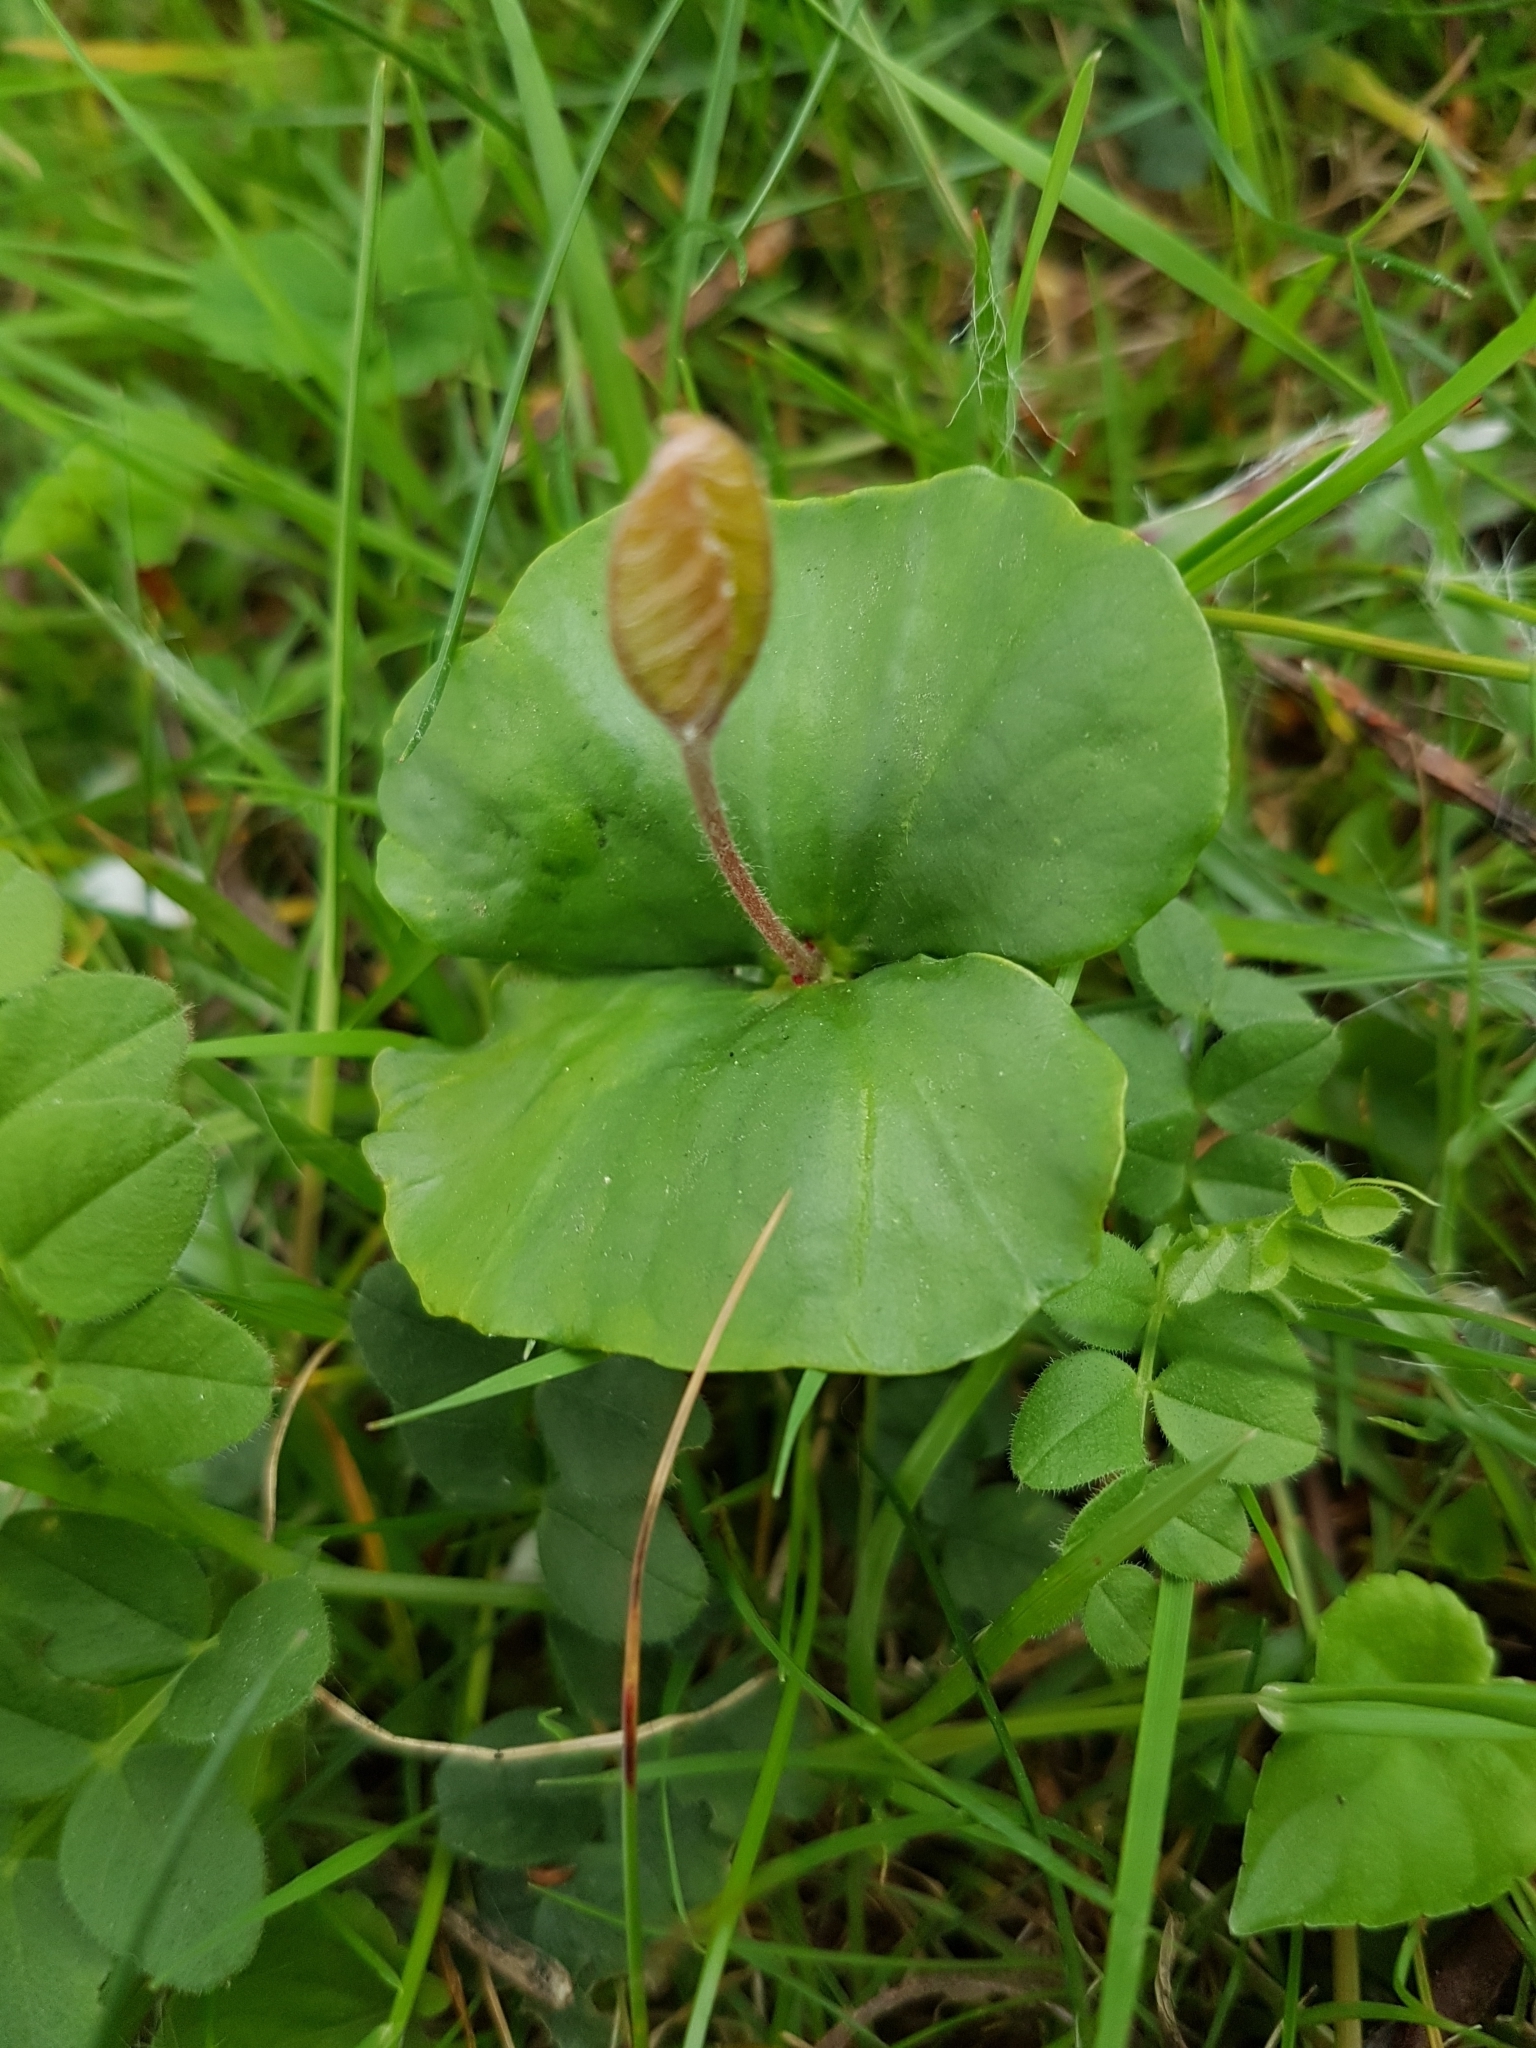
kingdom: Plantae
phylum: Tracheophyta
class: Magnoliopsida
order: Fagales
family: Fagaceae
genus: Fagus
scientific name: Fagus sylvatica
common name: Beech
